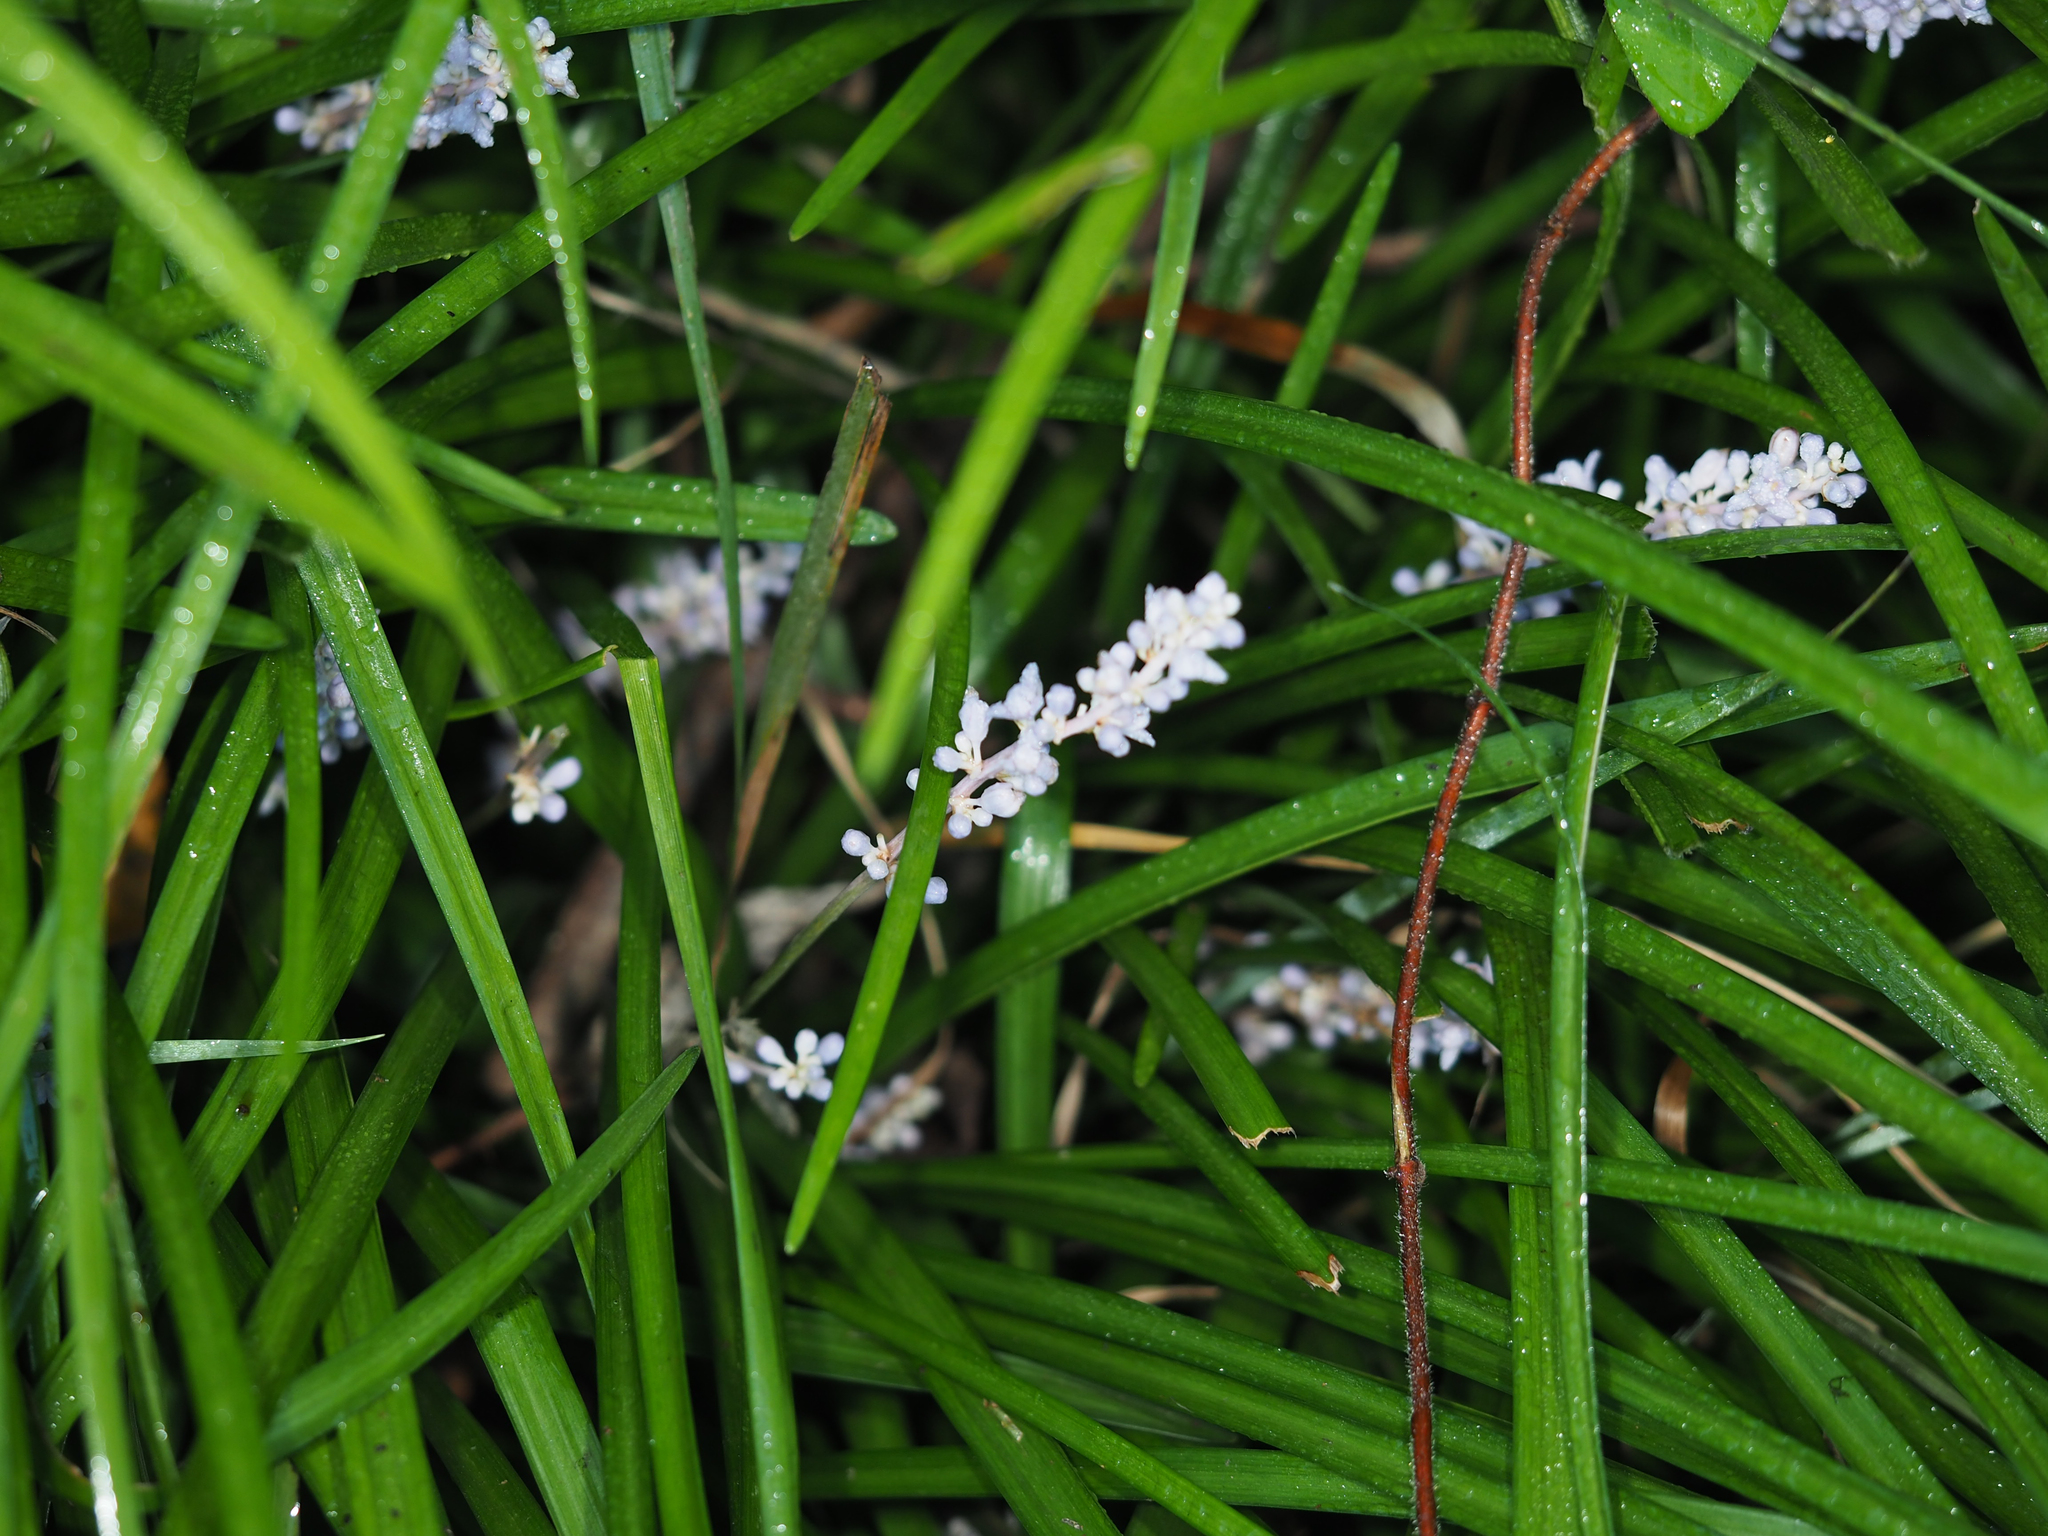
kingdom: Plantae
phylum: Tracheophyta
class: Liliopsida
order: Asparagales
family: Asparagaceae
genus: Liriope
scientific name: Liriope spicata
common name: Creeping liriope
